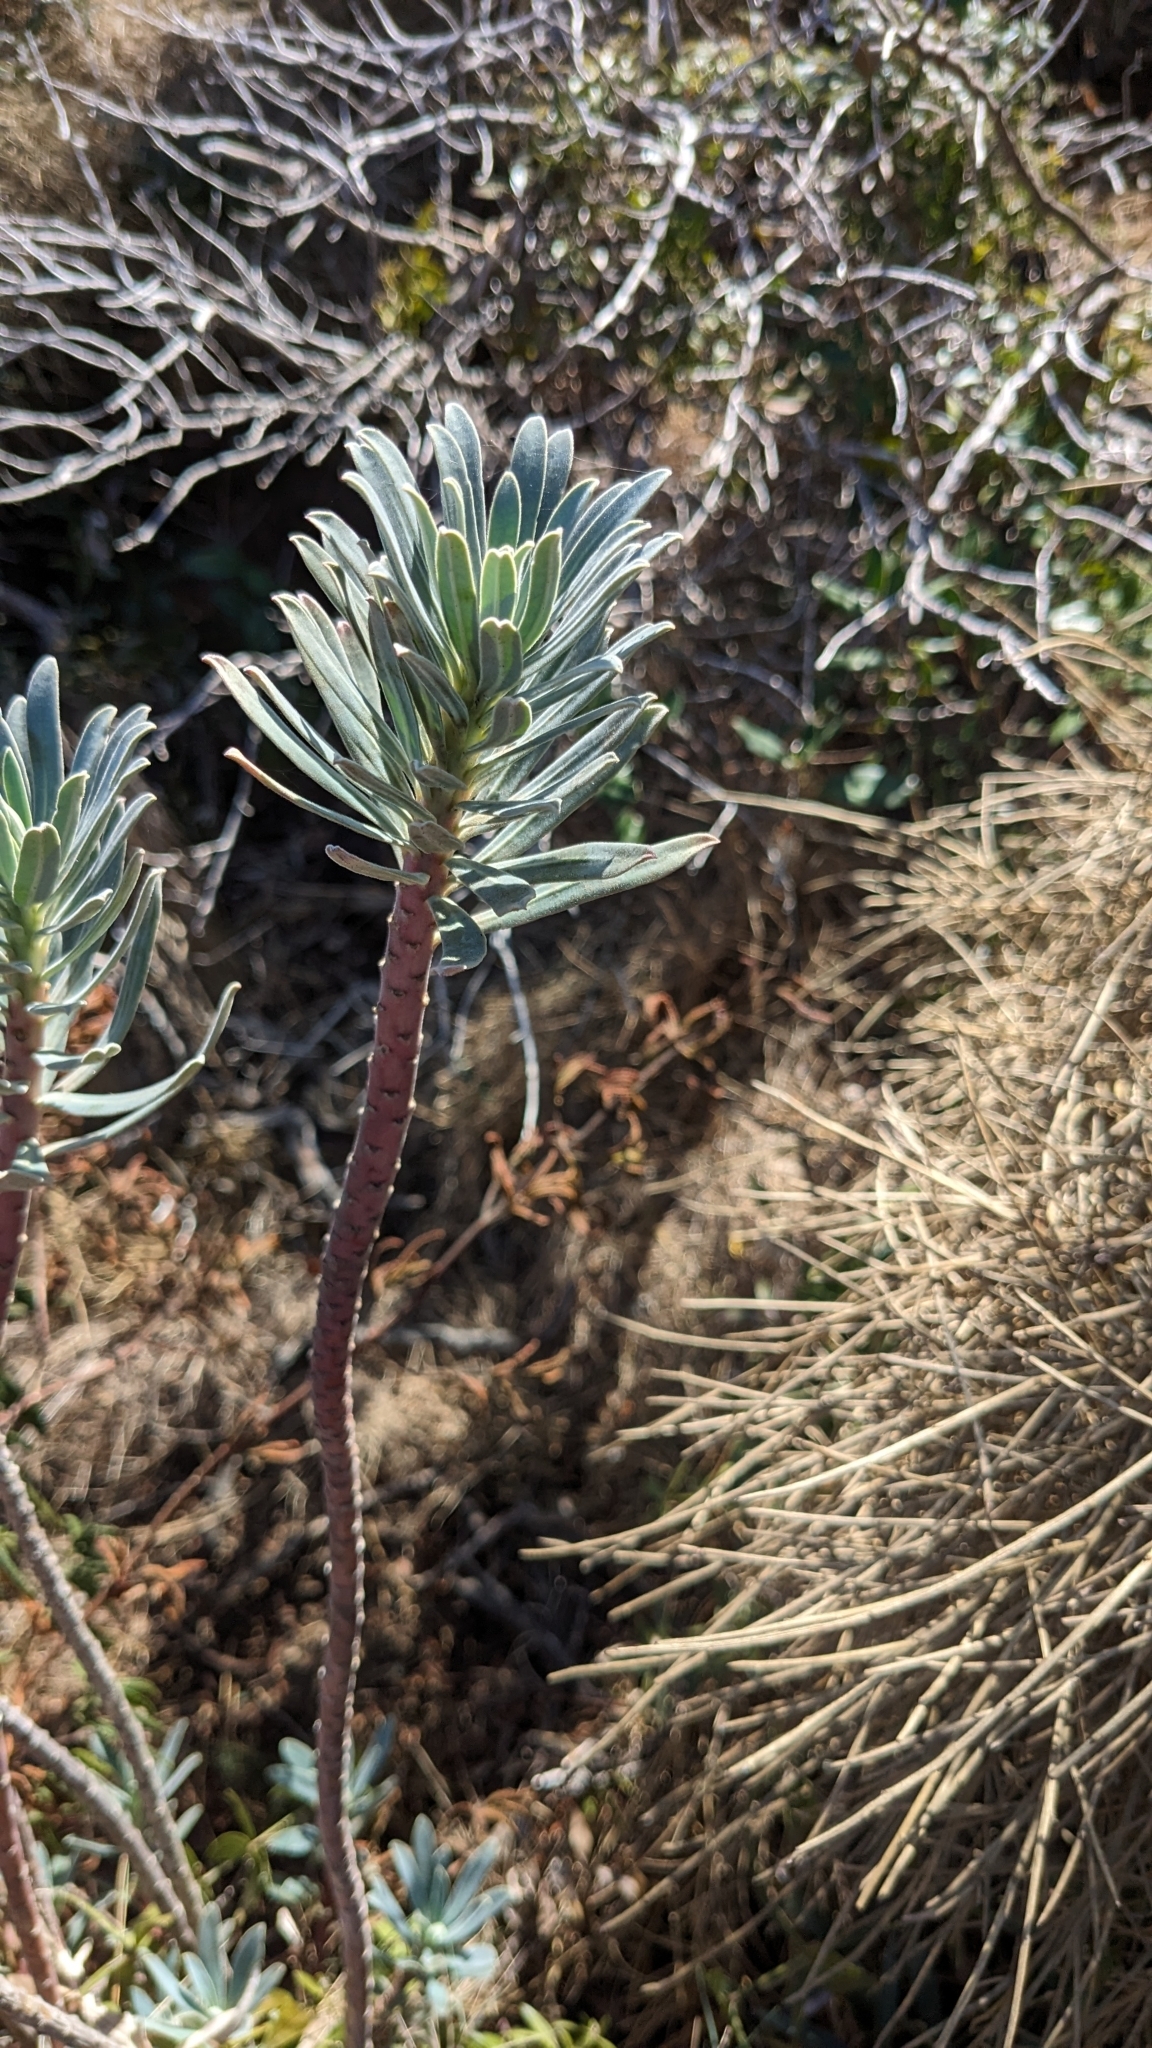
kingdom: Plantae
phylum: Tracheophyta
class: Magnoliopsida
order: Malpighiales
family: Euphorbiaceae
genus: Euphorbia
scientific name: Euphorbia characias
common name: Mediterranean spurge
